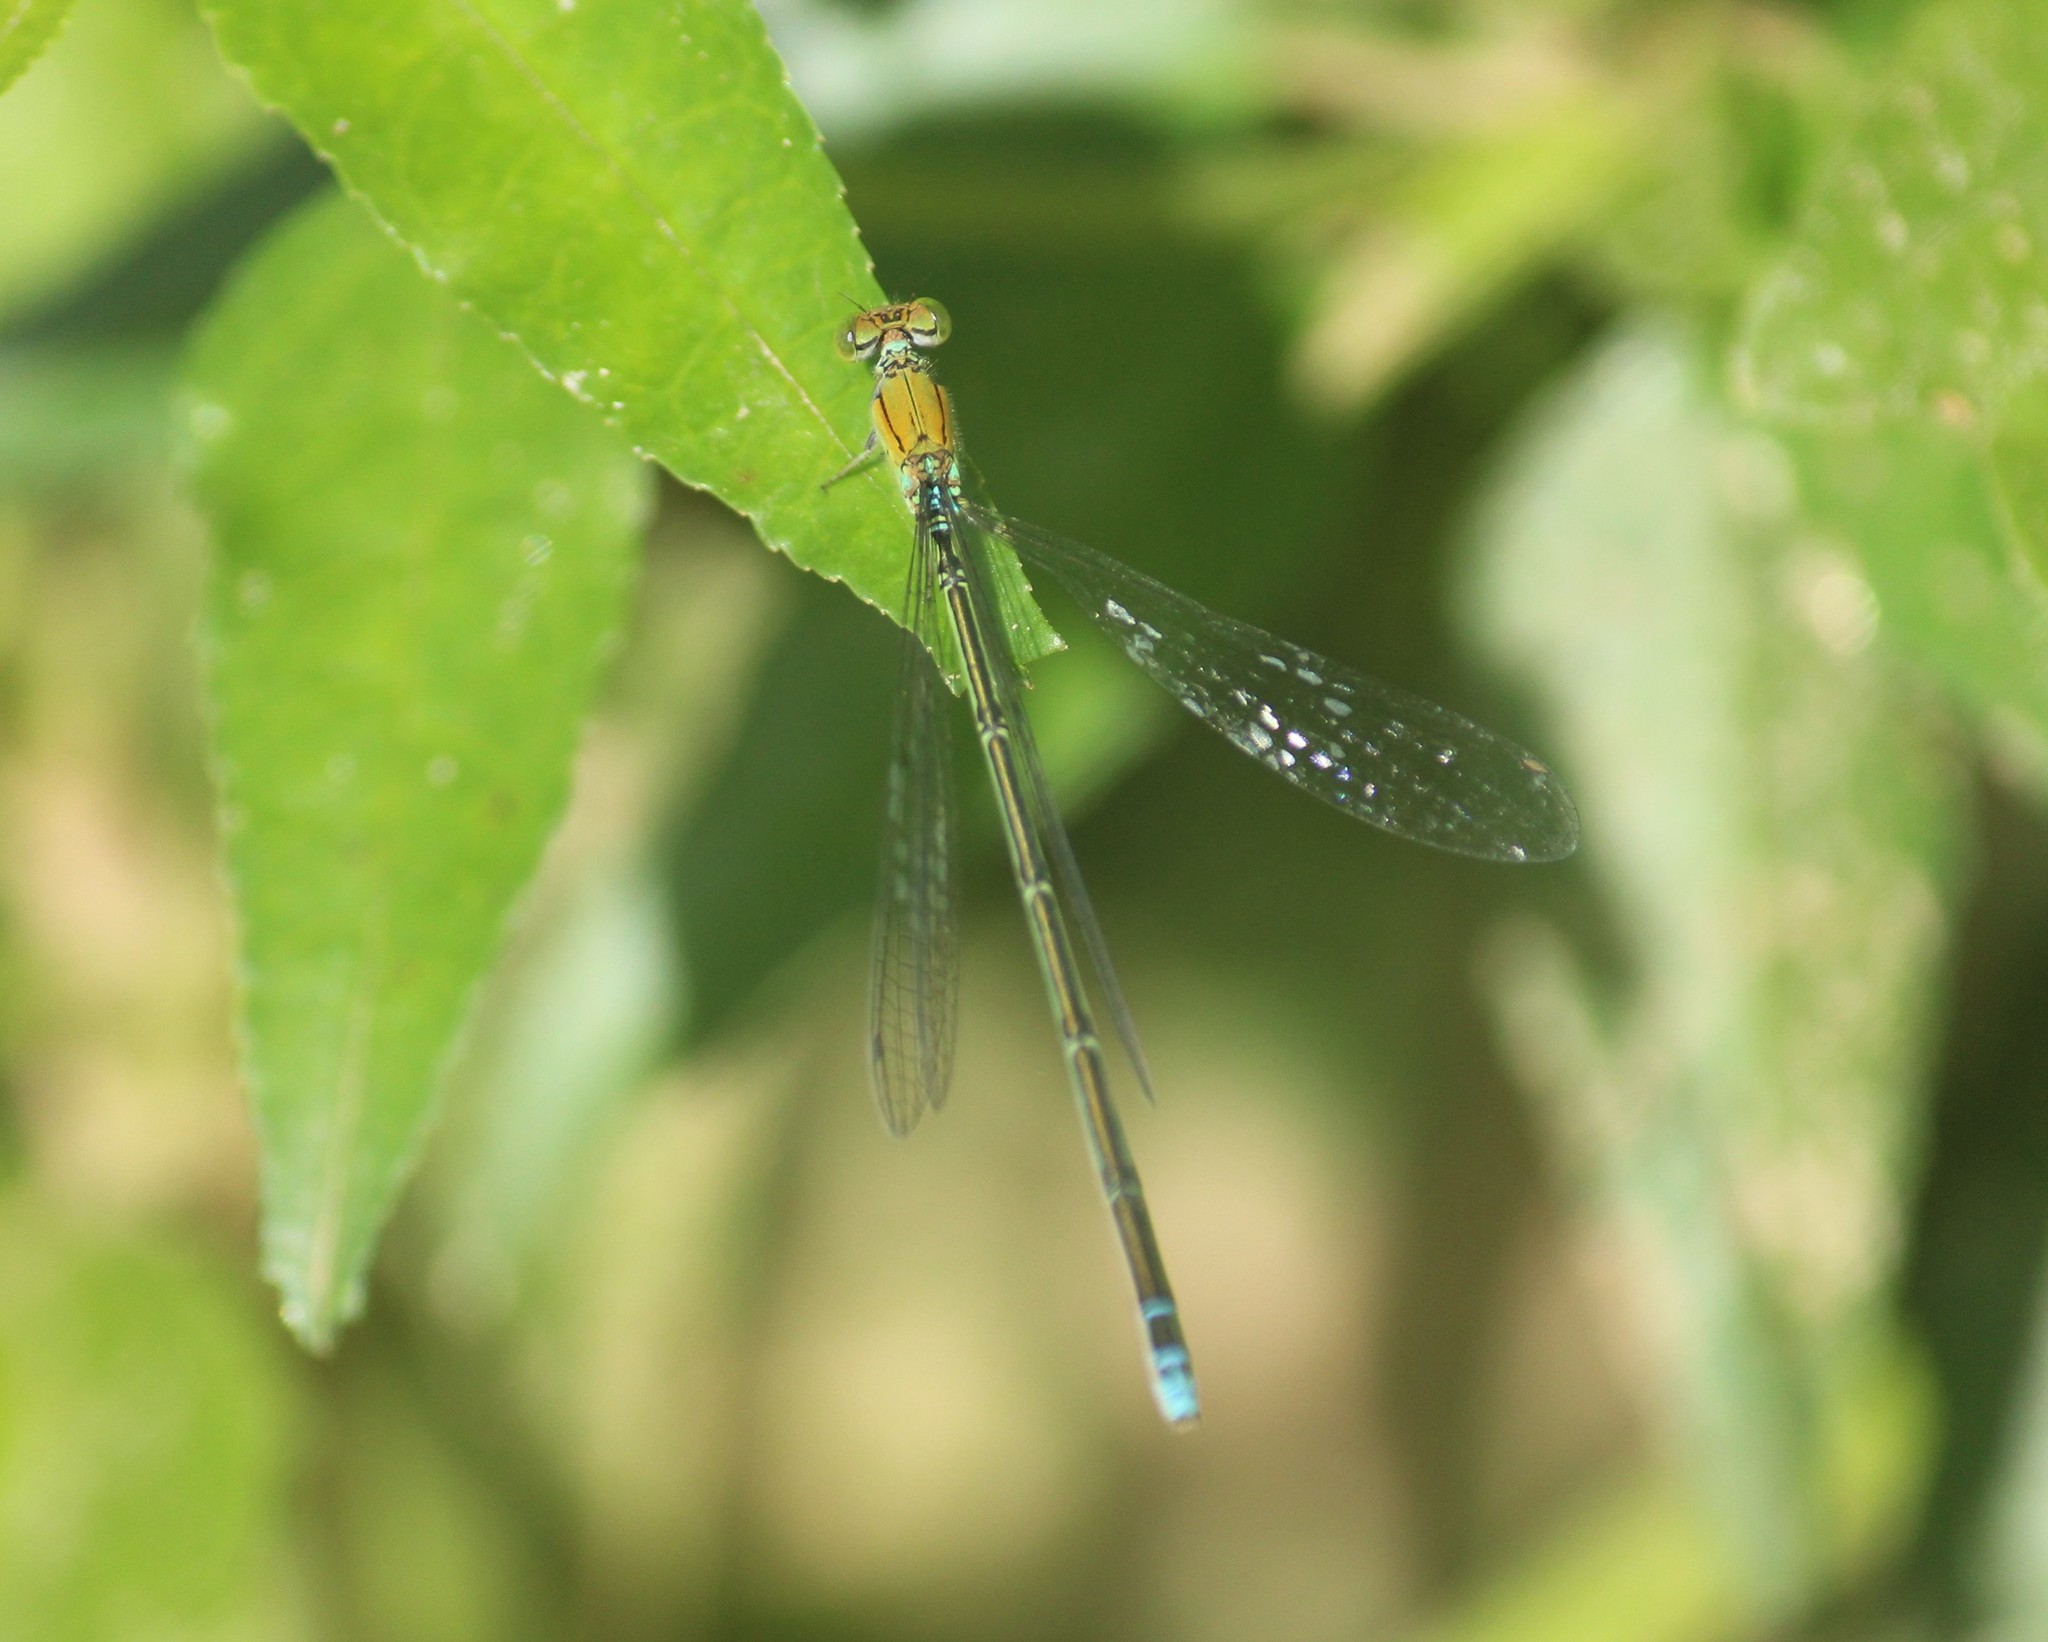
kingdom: Animalia
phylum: Arthropoda
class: Insecta
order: Odonata
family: Coenagrionidae
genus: Pseudagrion
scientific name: Pseudagrion rubriceps
